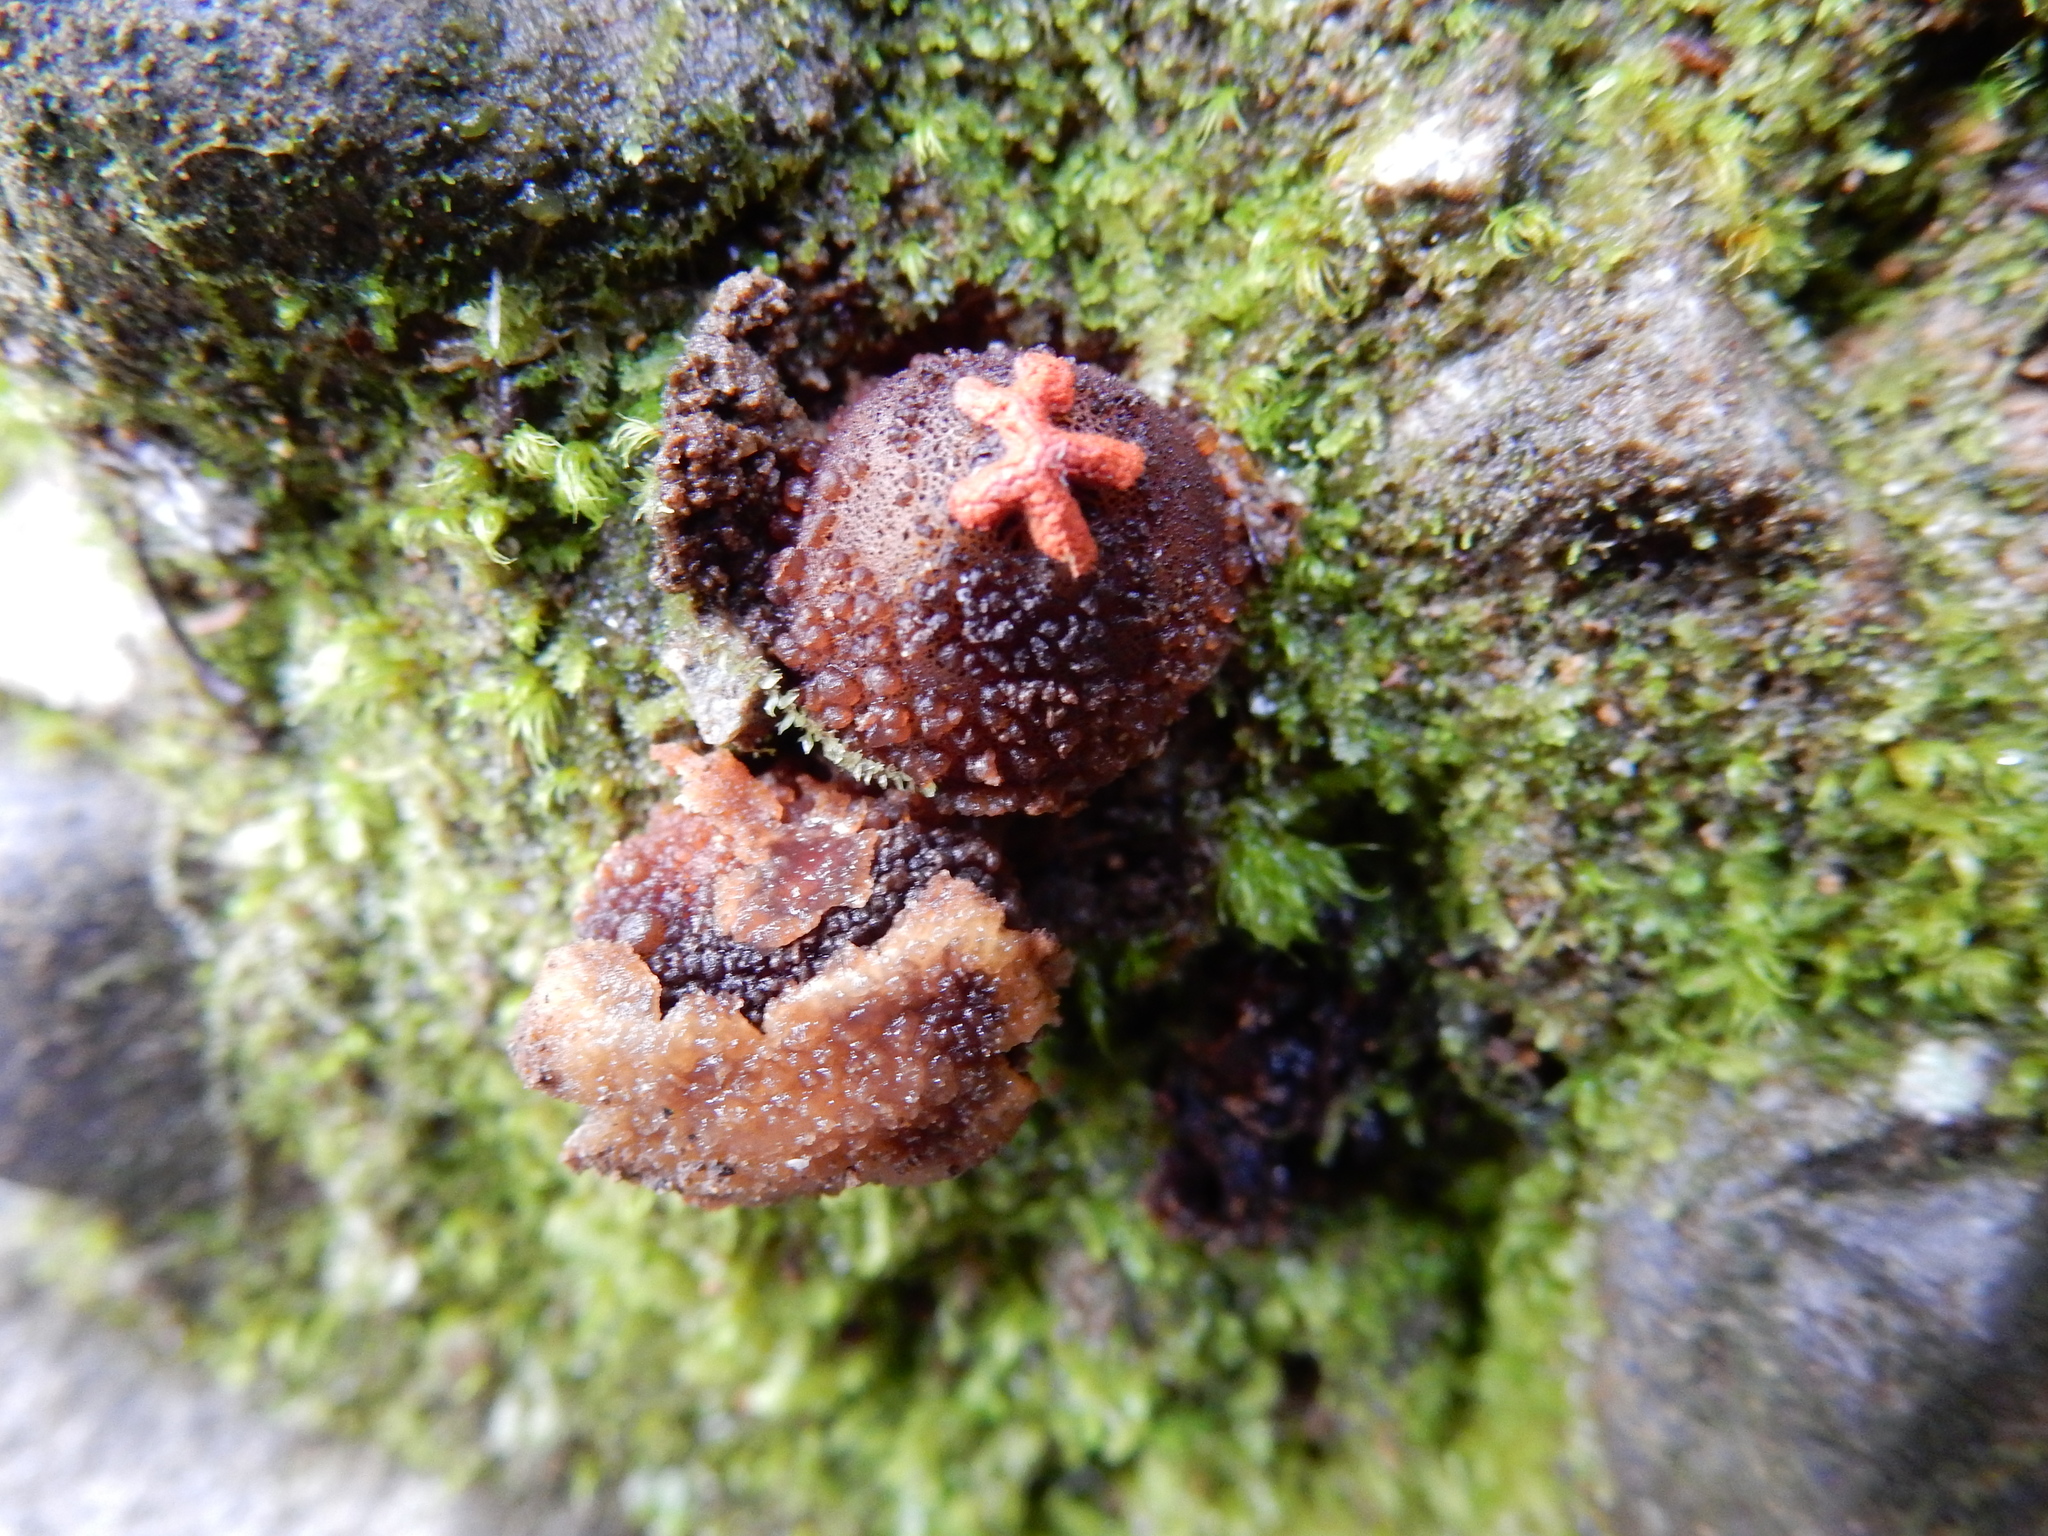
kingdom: Fungi
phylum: Basidiomycota
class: Agaricomycetes
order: Boletales
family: Calostomataceae
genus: Calostoma
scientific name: Calostoma rodwayi
